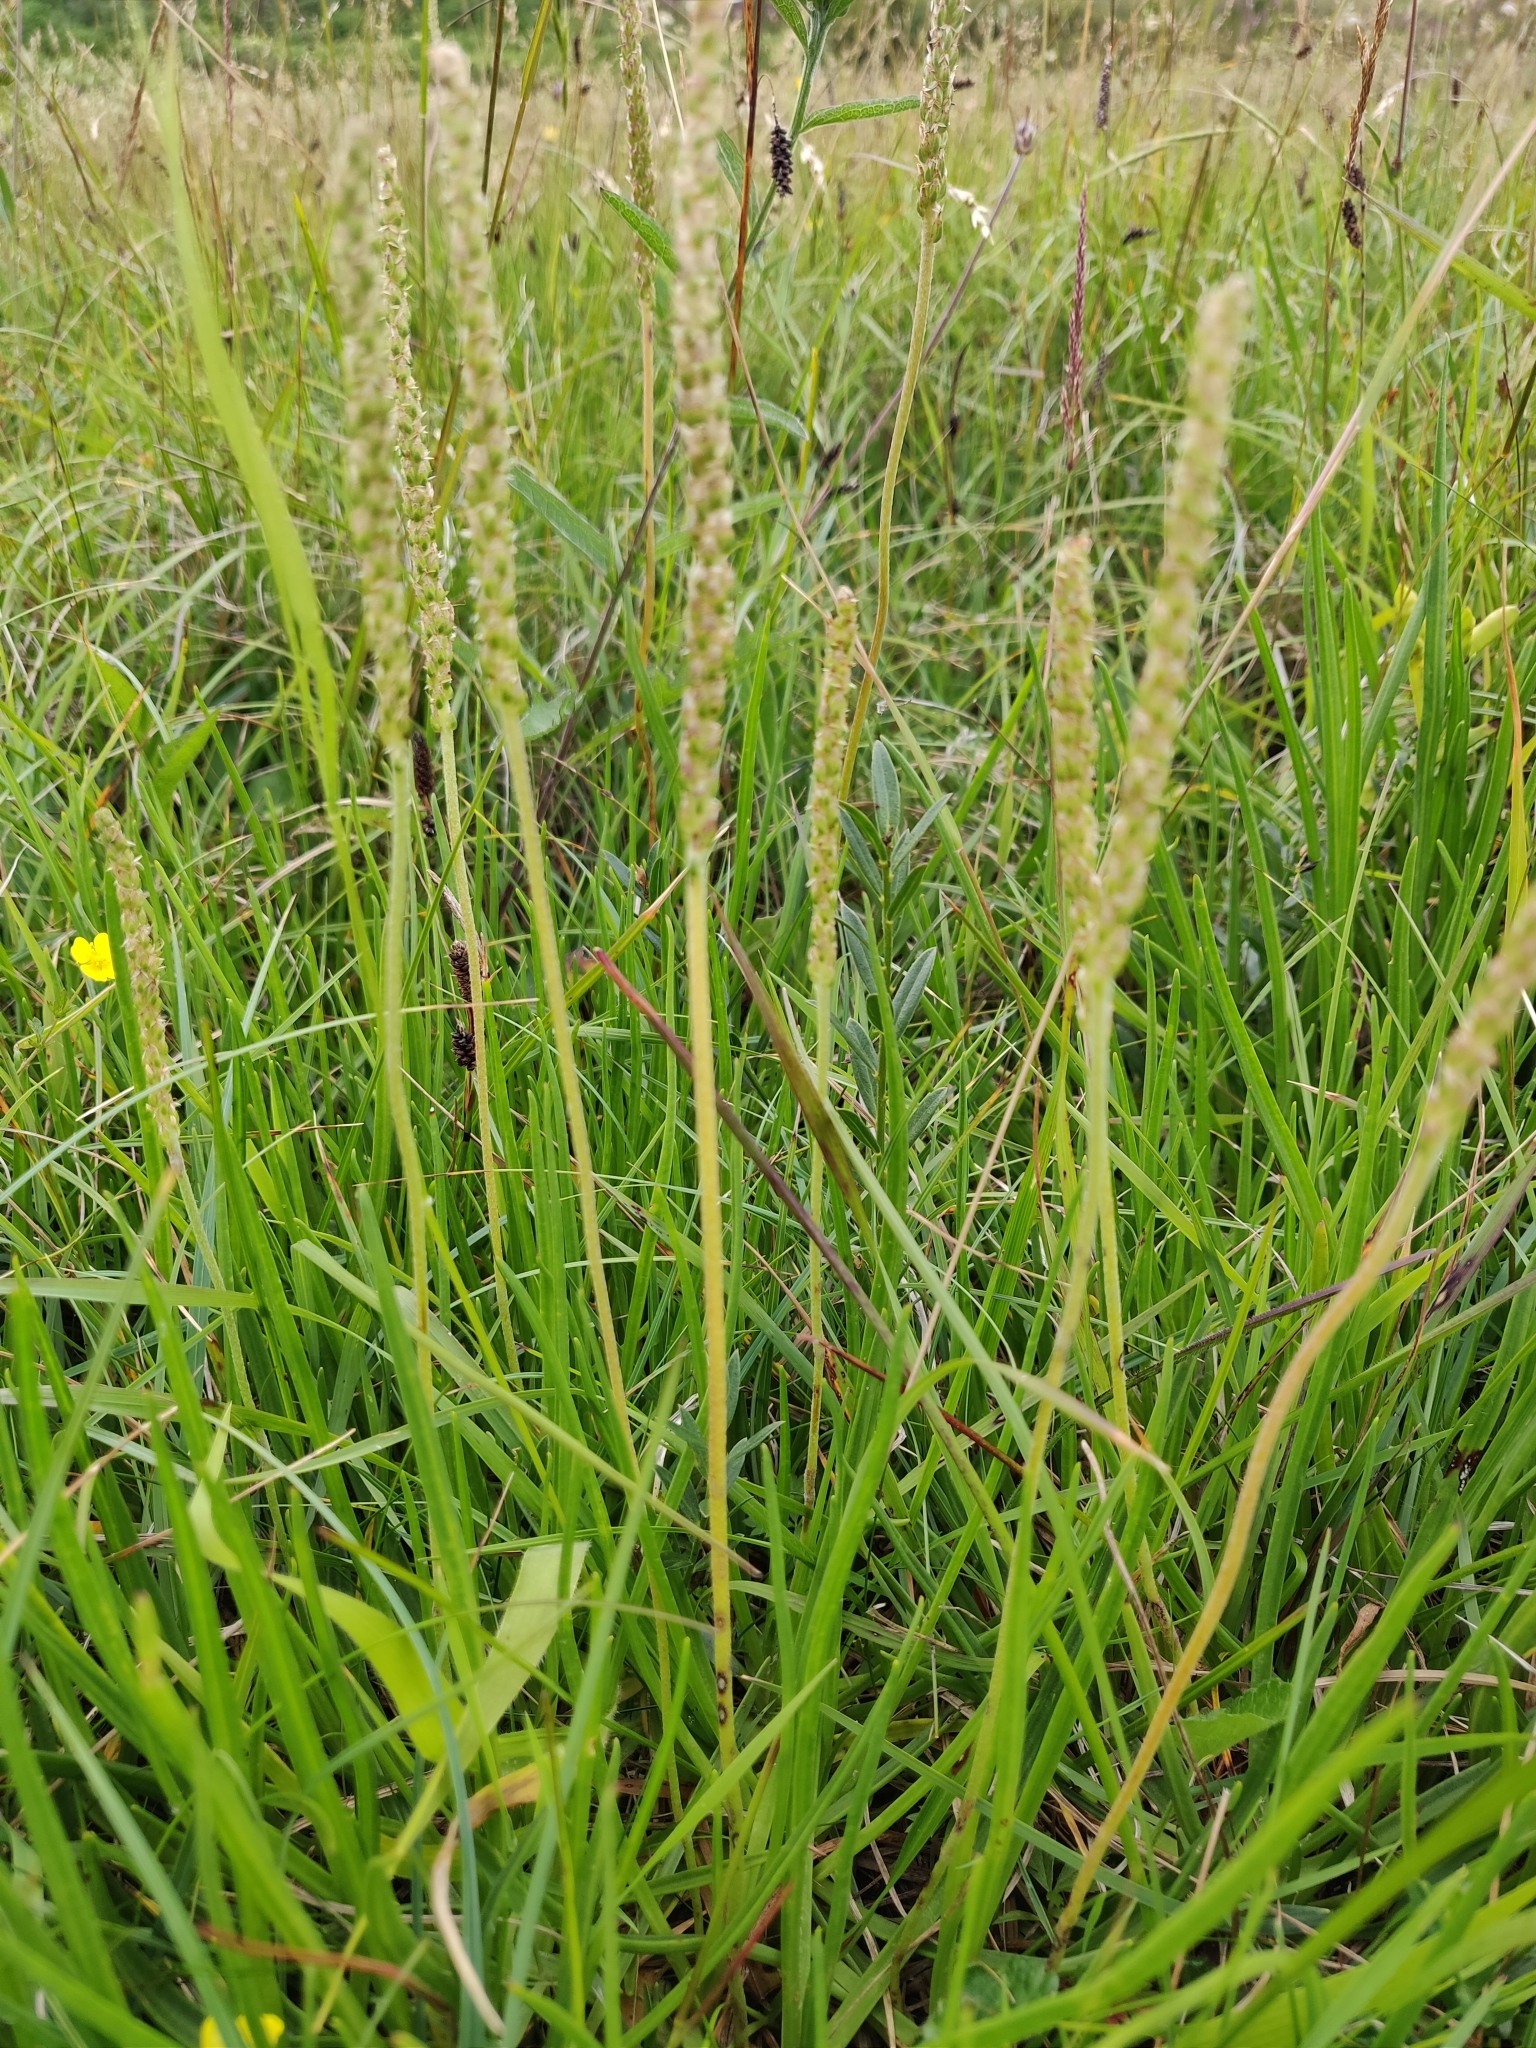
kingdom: Plantae
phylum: Tracheophyta
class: Magnoliopsida
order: Lamiales
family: Plantaginaceae
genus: Plantago
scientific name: Plantago maritima
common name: Sea plantain
